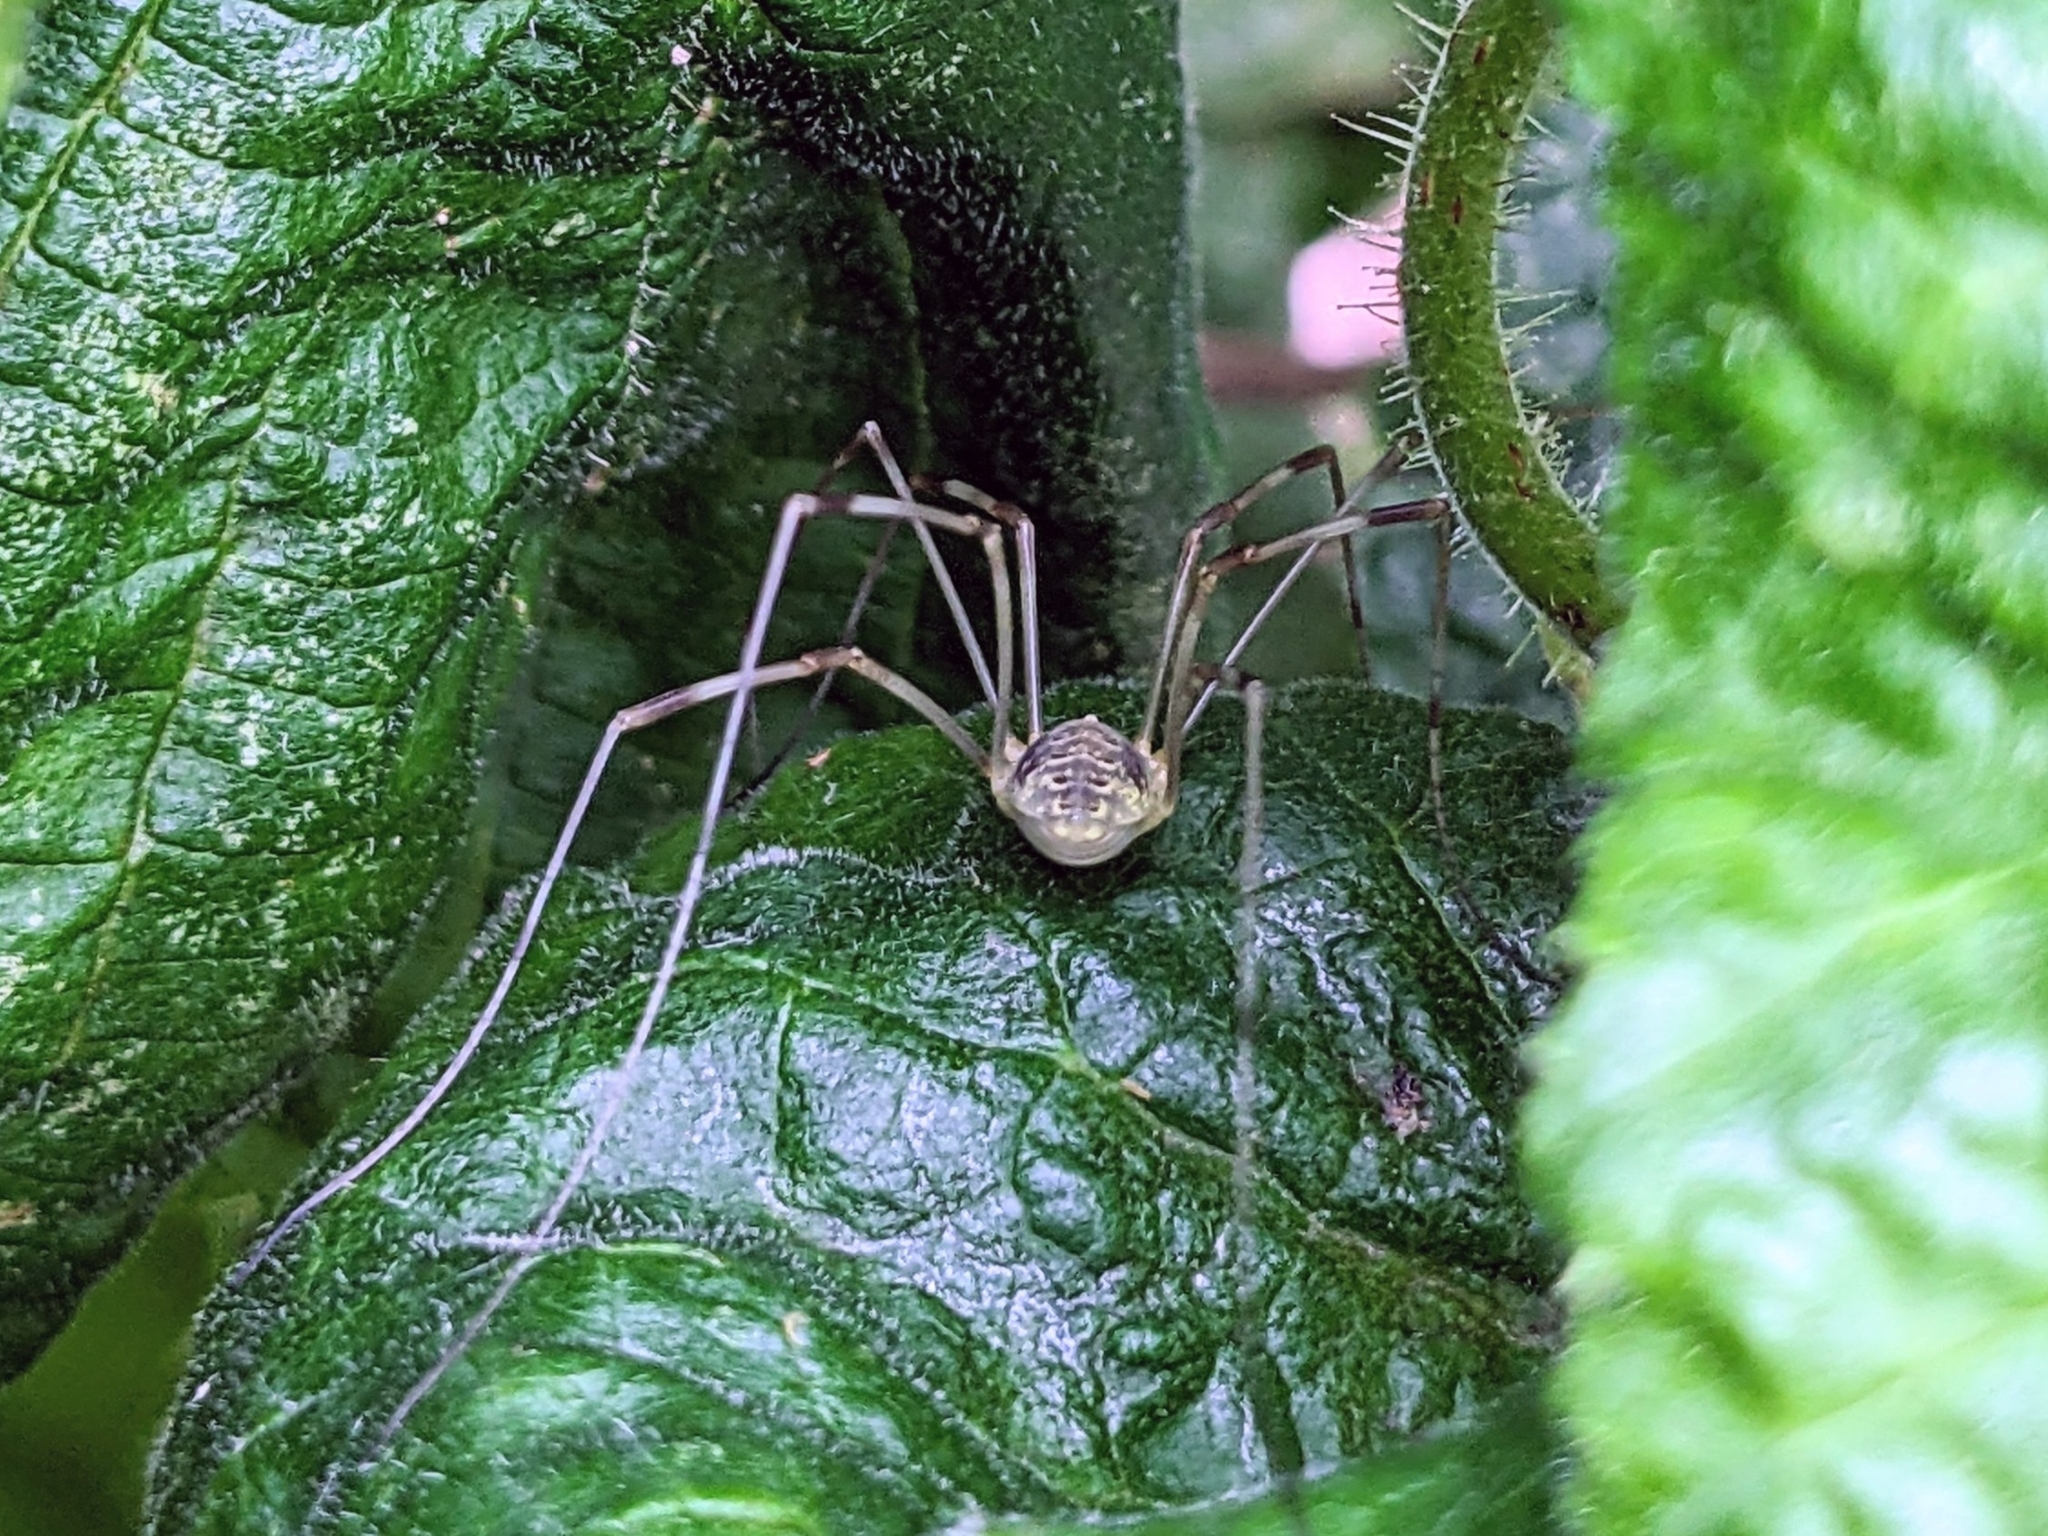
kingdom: Animalia
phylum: Arthropoda
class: Arachnida
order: Opiliones
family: Phalangiidae
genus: Opilio
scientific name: Opilio canestrinii
